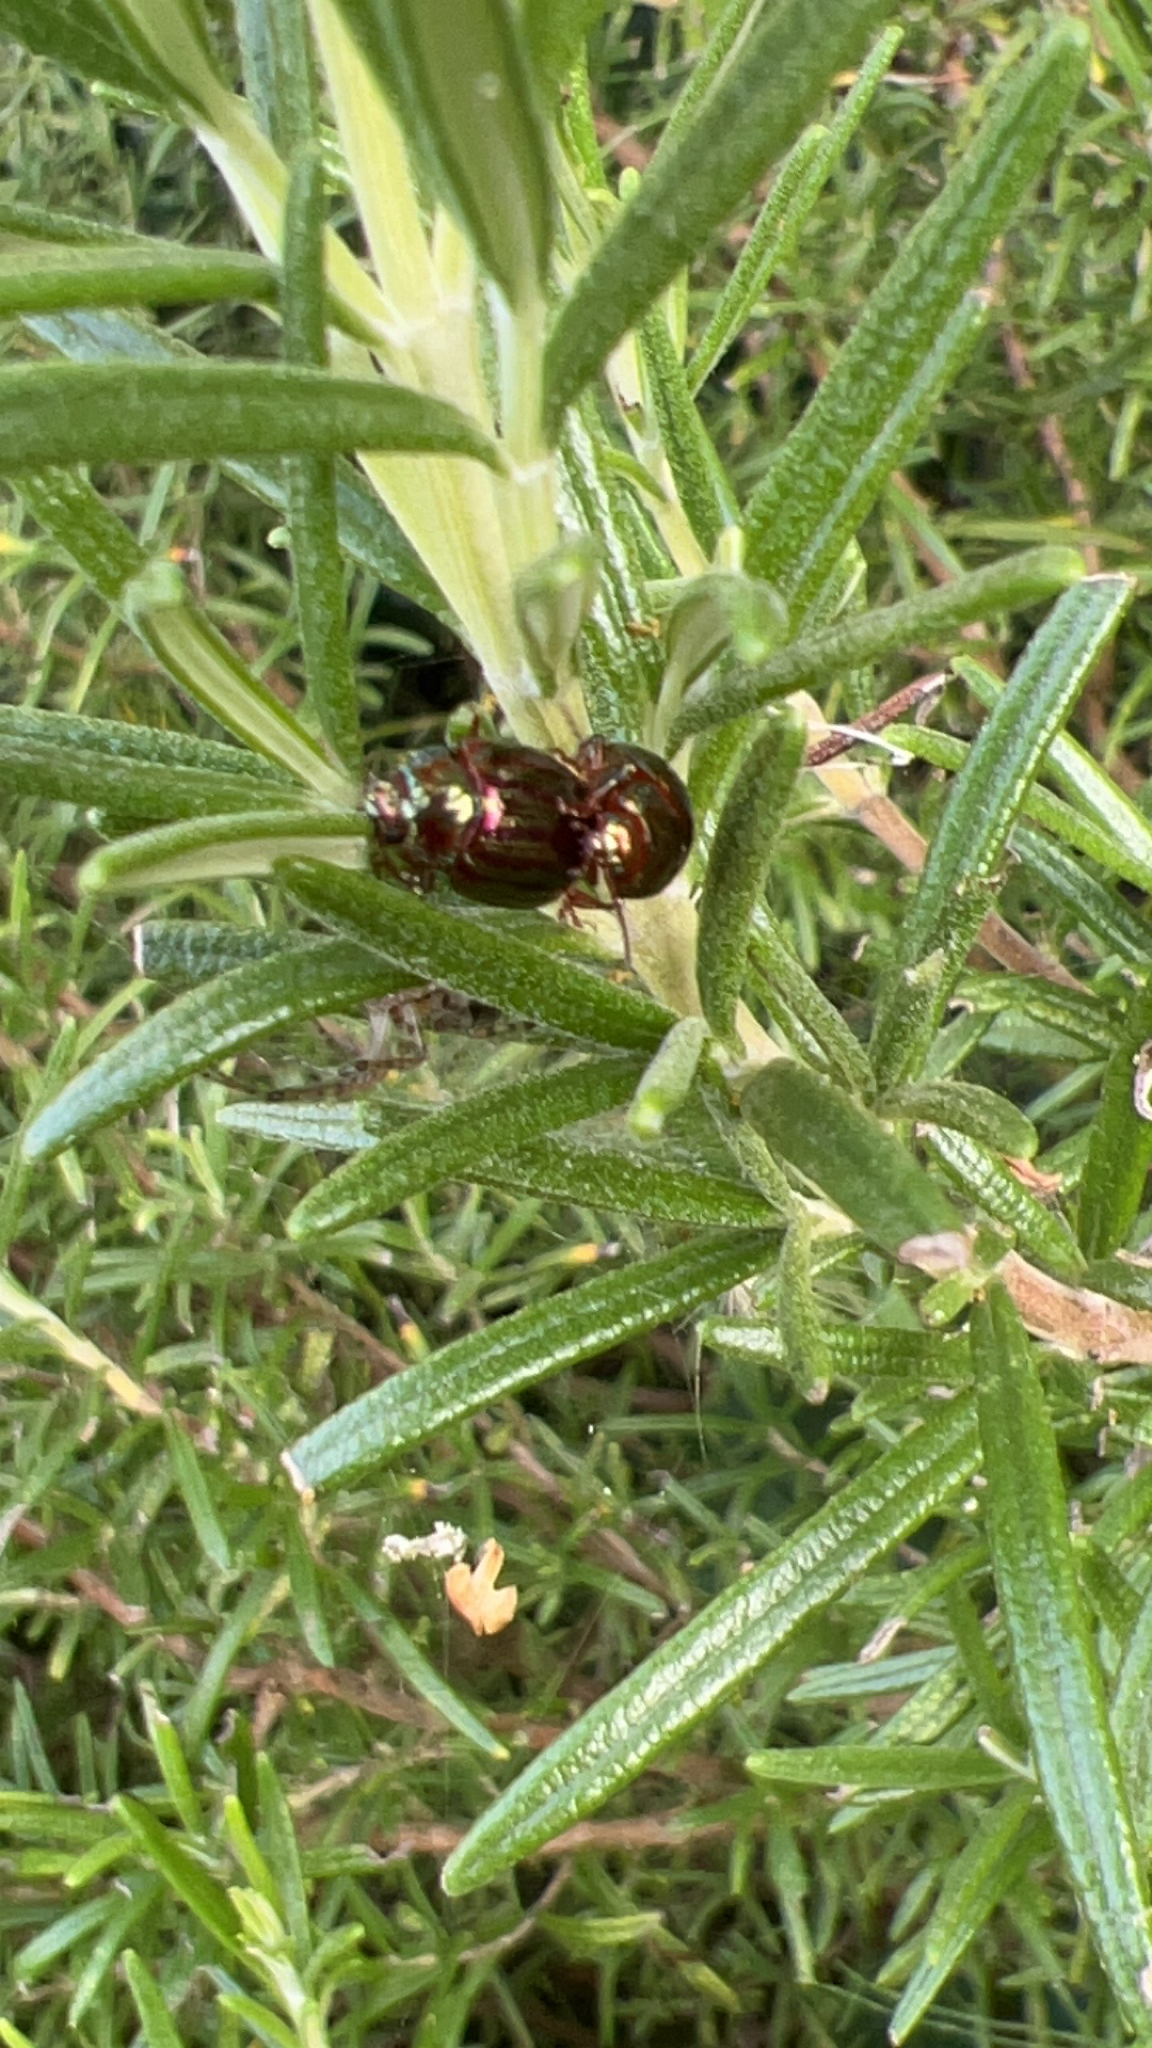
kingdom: Animalia
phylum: Arthropoda
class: Insecta
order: Coleoptera
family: Chrysomelidae
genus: Chrysolina
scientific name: Chrysolina americana
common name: Rosemary beetle
